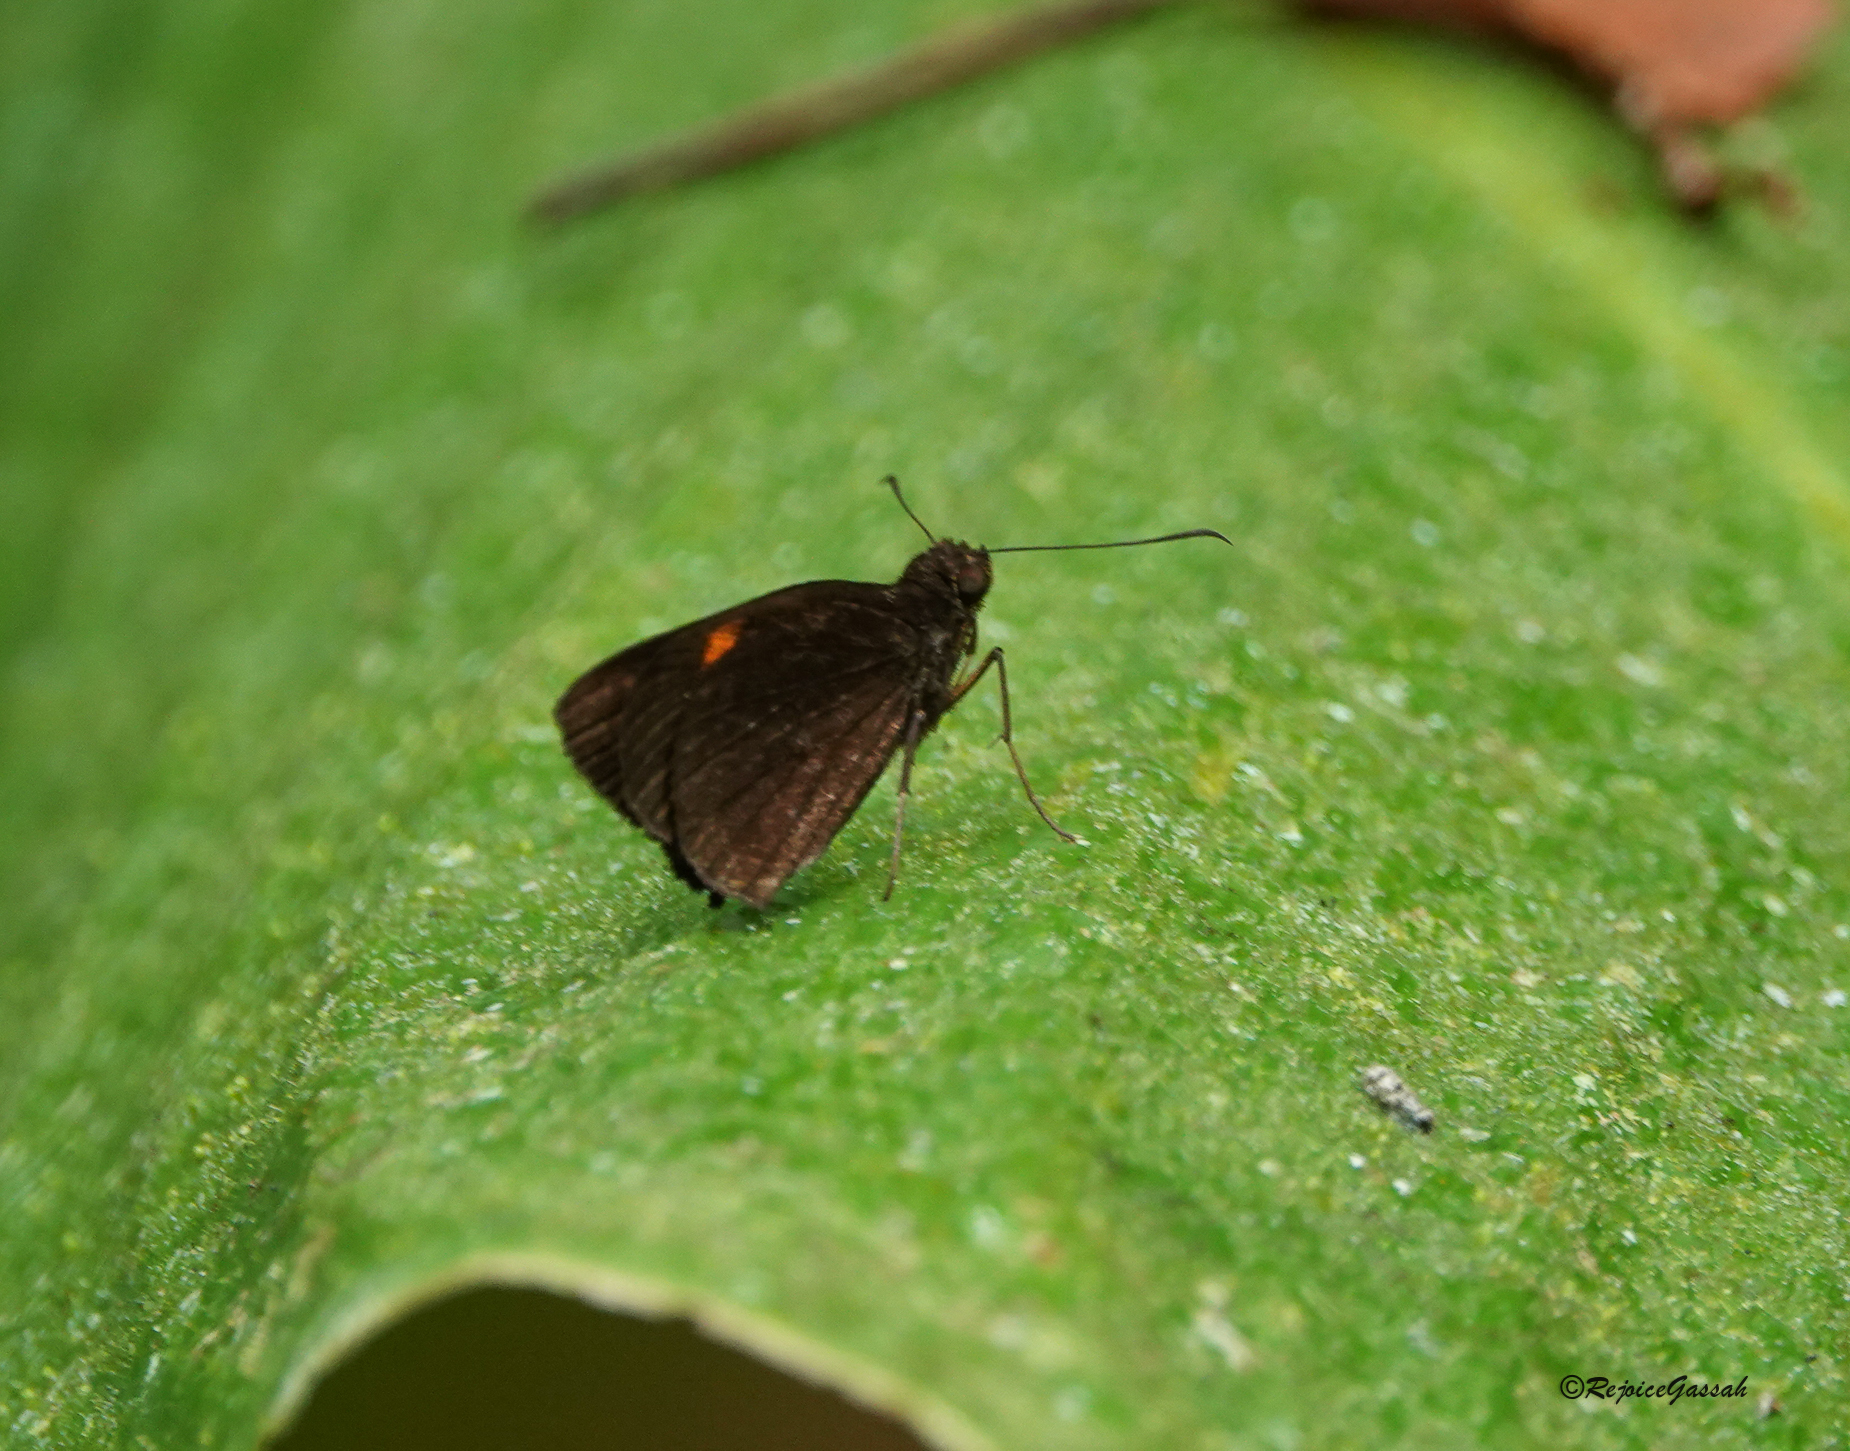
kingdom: Animalia
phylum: Arthropoda
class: Insecta
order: Lepidoptera
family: Hesperiidae
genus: Koruthaialos
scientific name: Koruthaialos sindu
